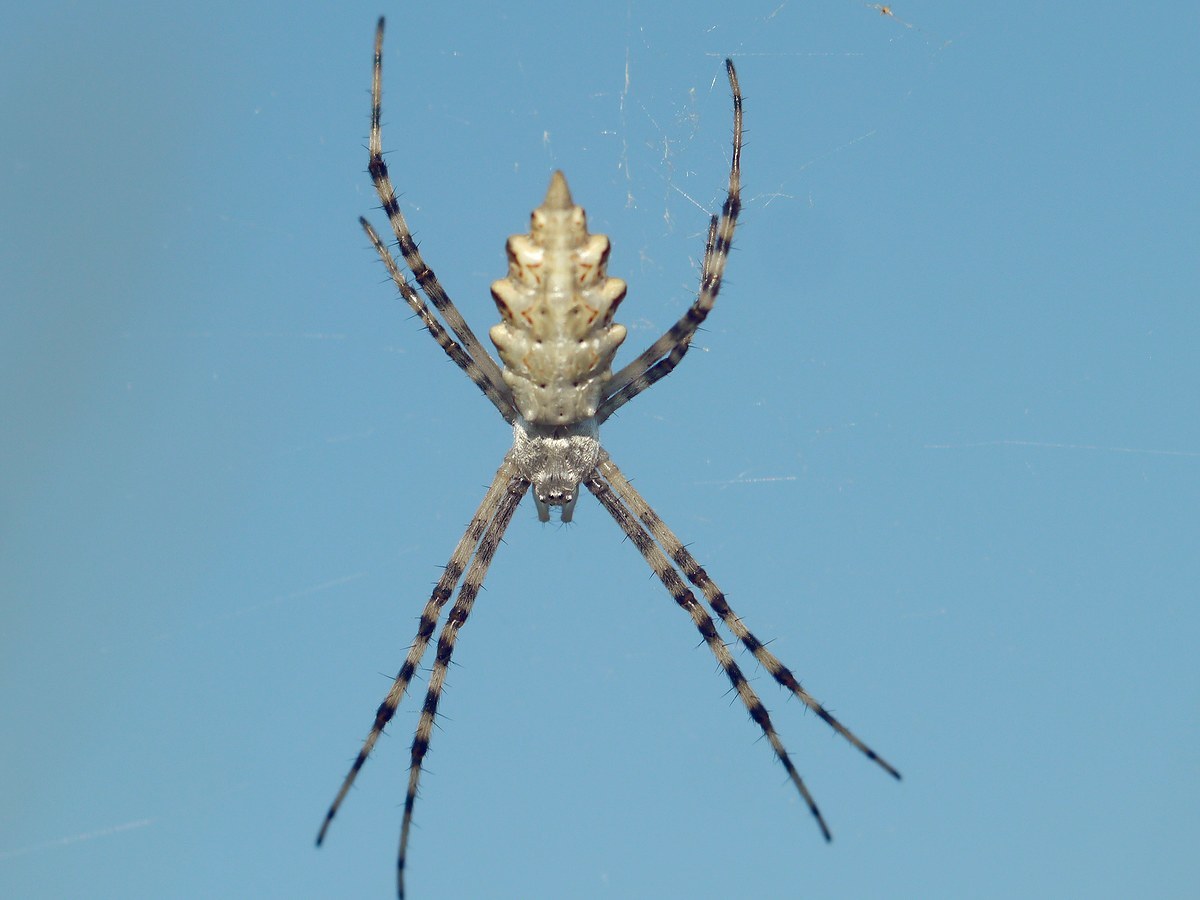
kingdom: Animalia
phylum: Arthropoda
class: Arachnida
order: Araneae
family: Araneidae
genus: Argiope
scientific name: Argiope lobata
